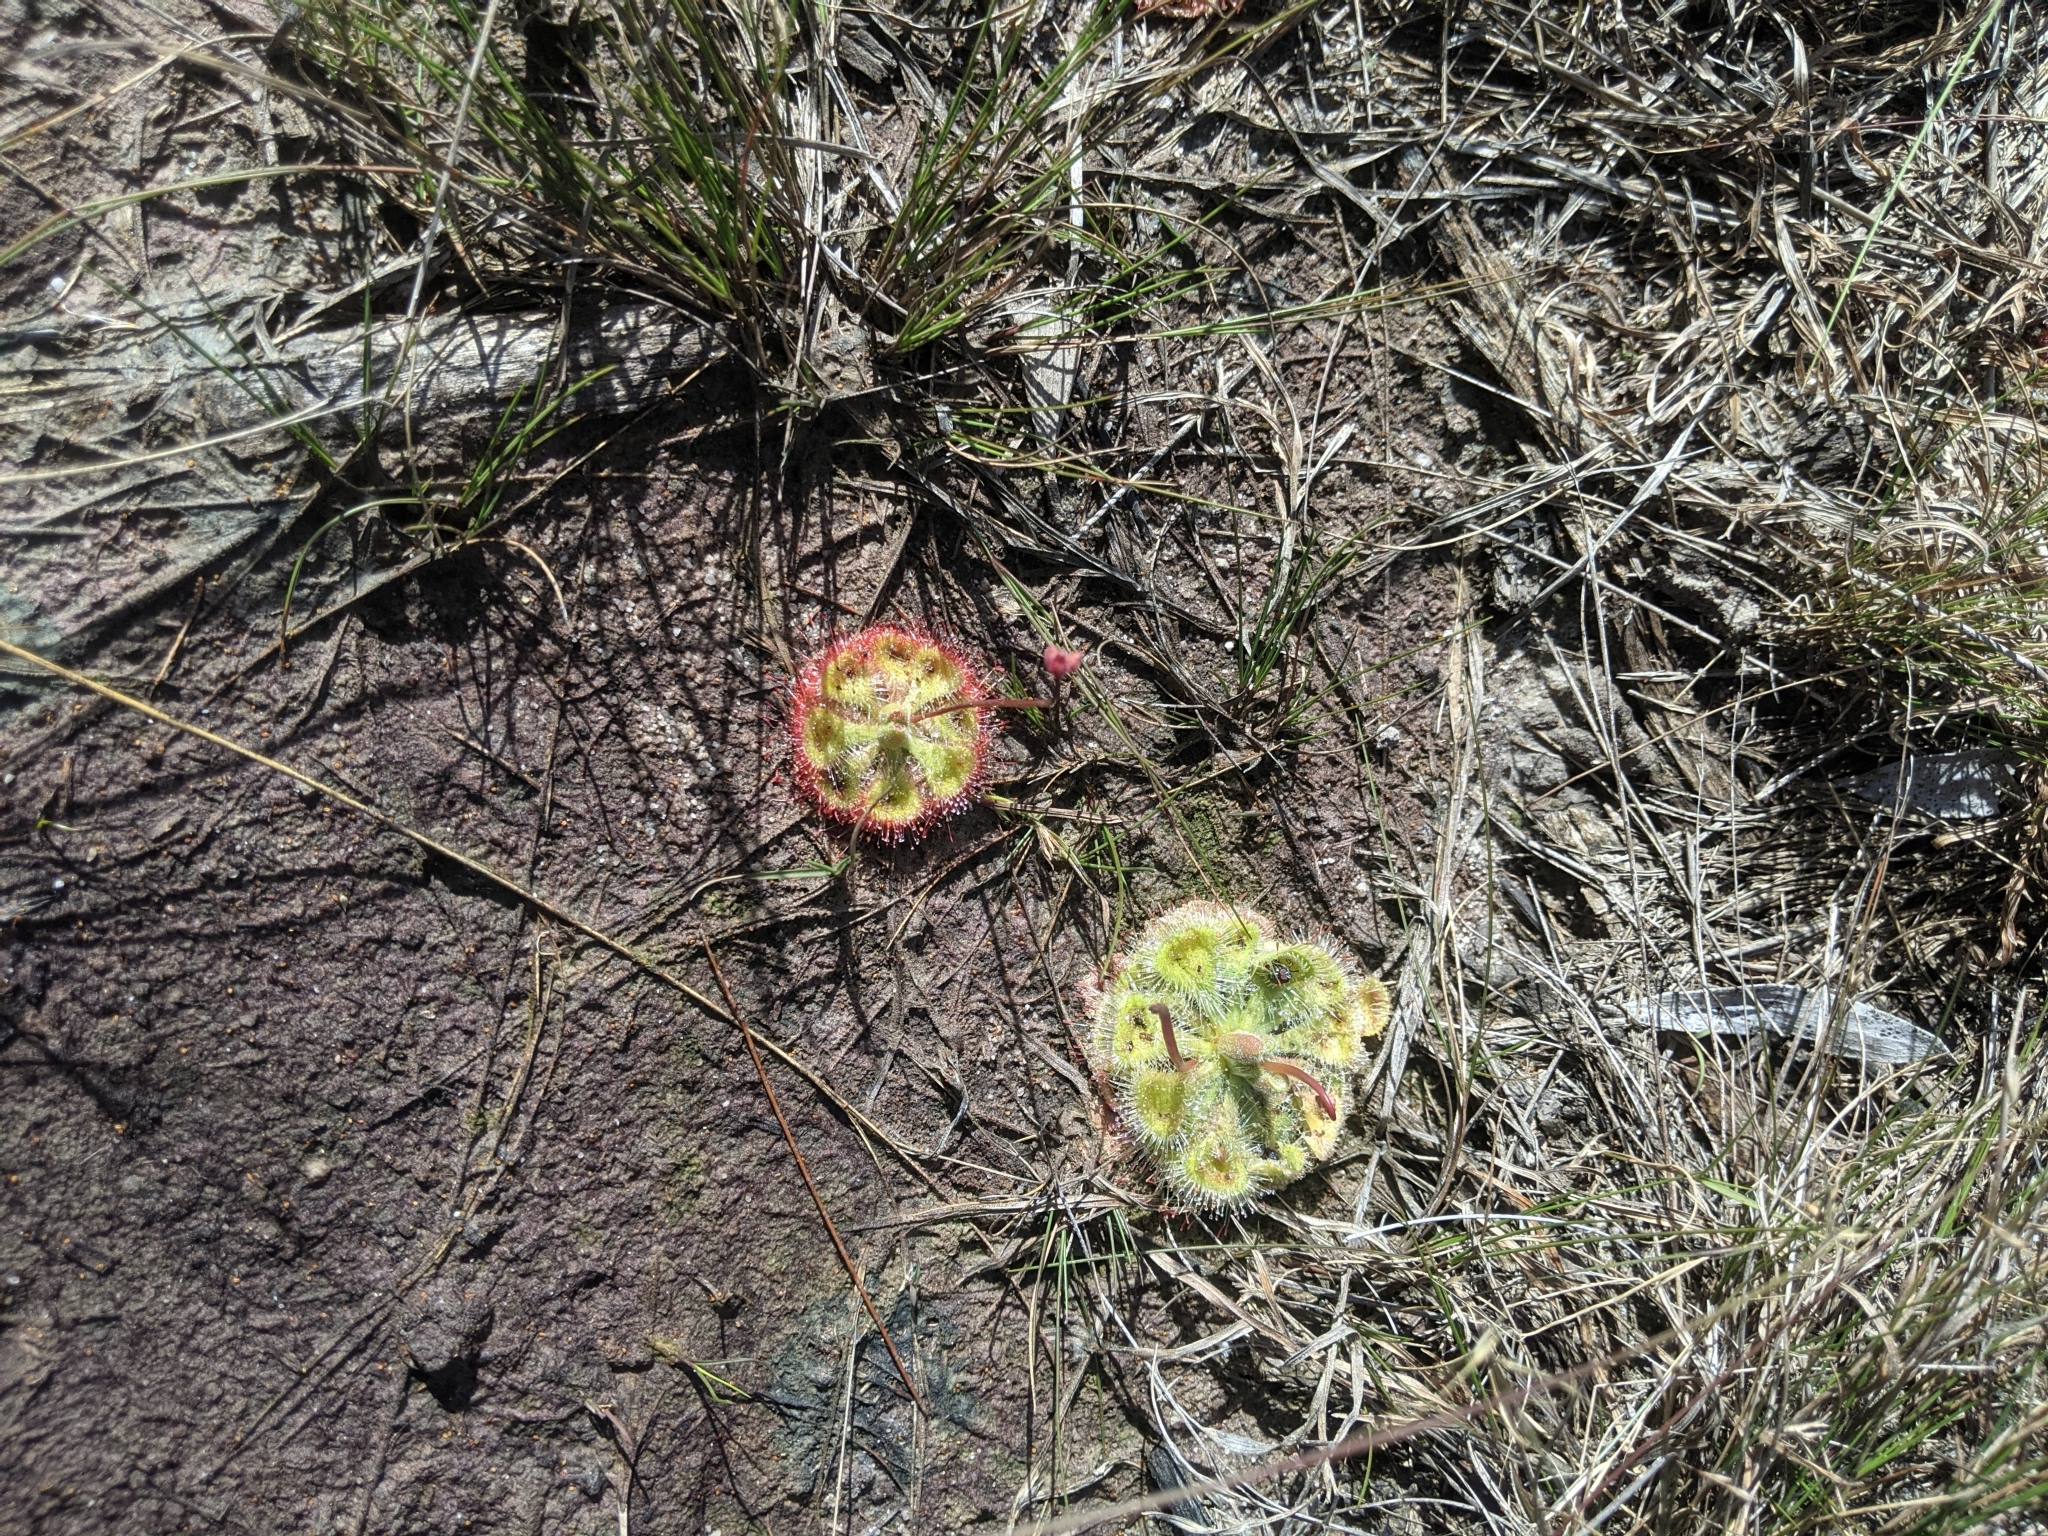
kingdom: Plantae
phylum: Tracheophyta
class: Magnoliopsida
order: Caryophyllales
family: Droseraceae
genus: Drosera
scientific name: Drosera spatulata
